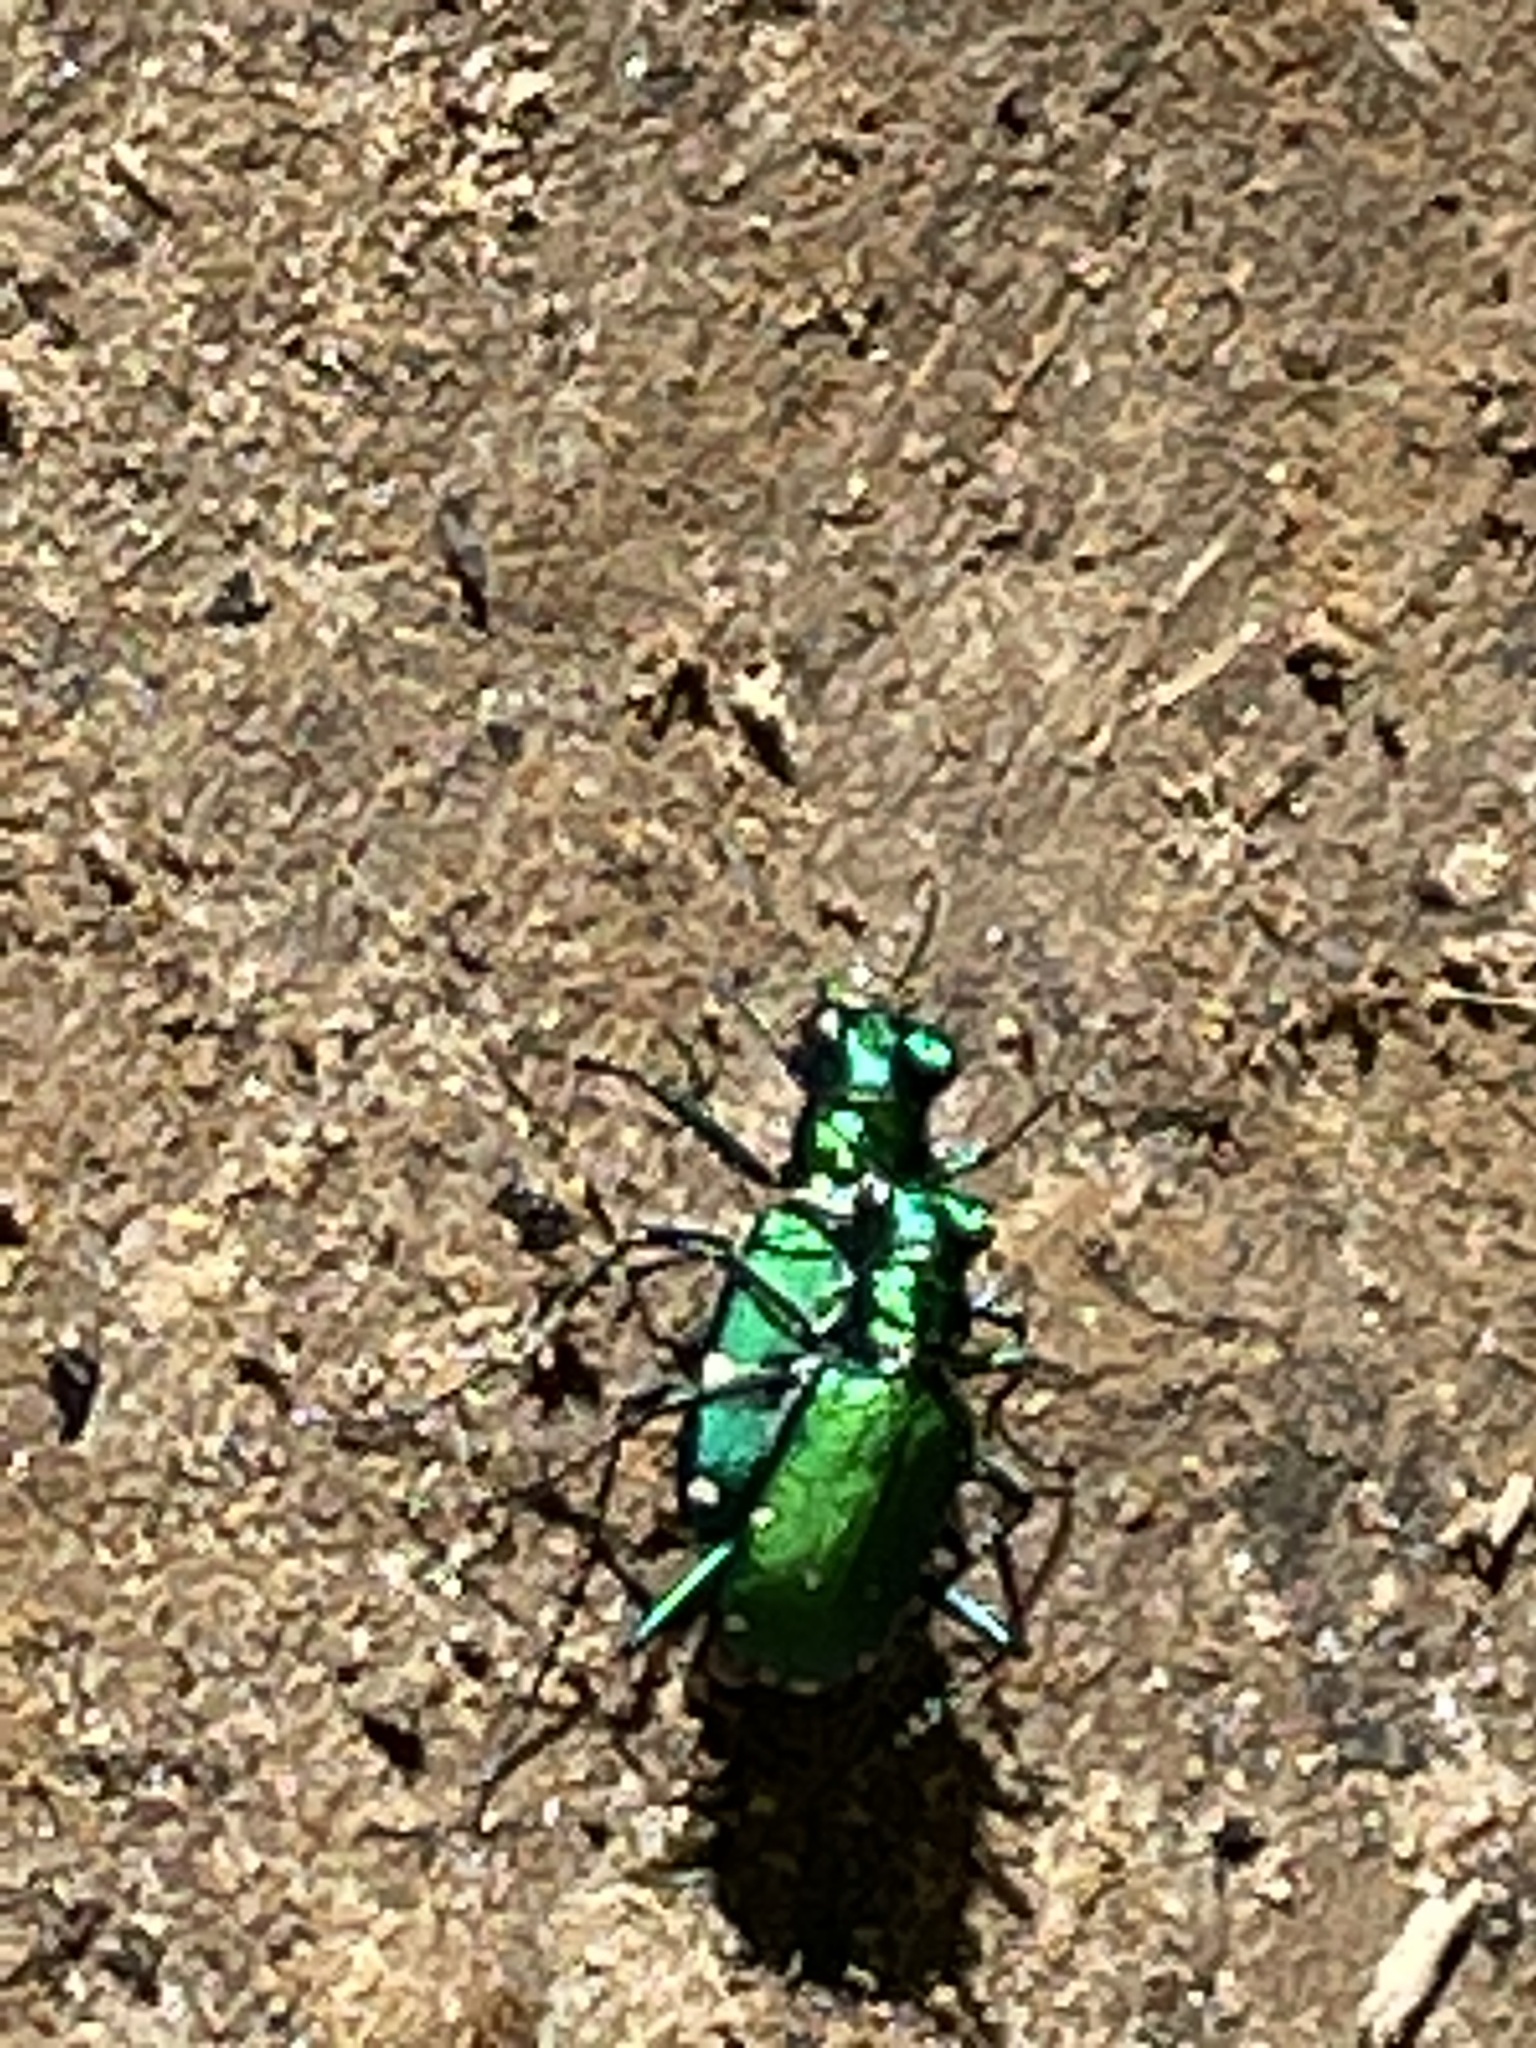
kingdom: Animalia
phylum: Arthropoda
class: Insecta
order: Coleoptera
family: Carabidae
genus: Cicindela
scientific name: Cicindela sexguttata
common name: Six-spotted tiger beetle
